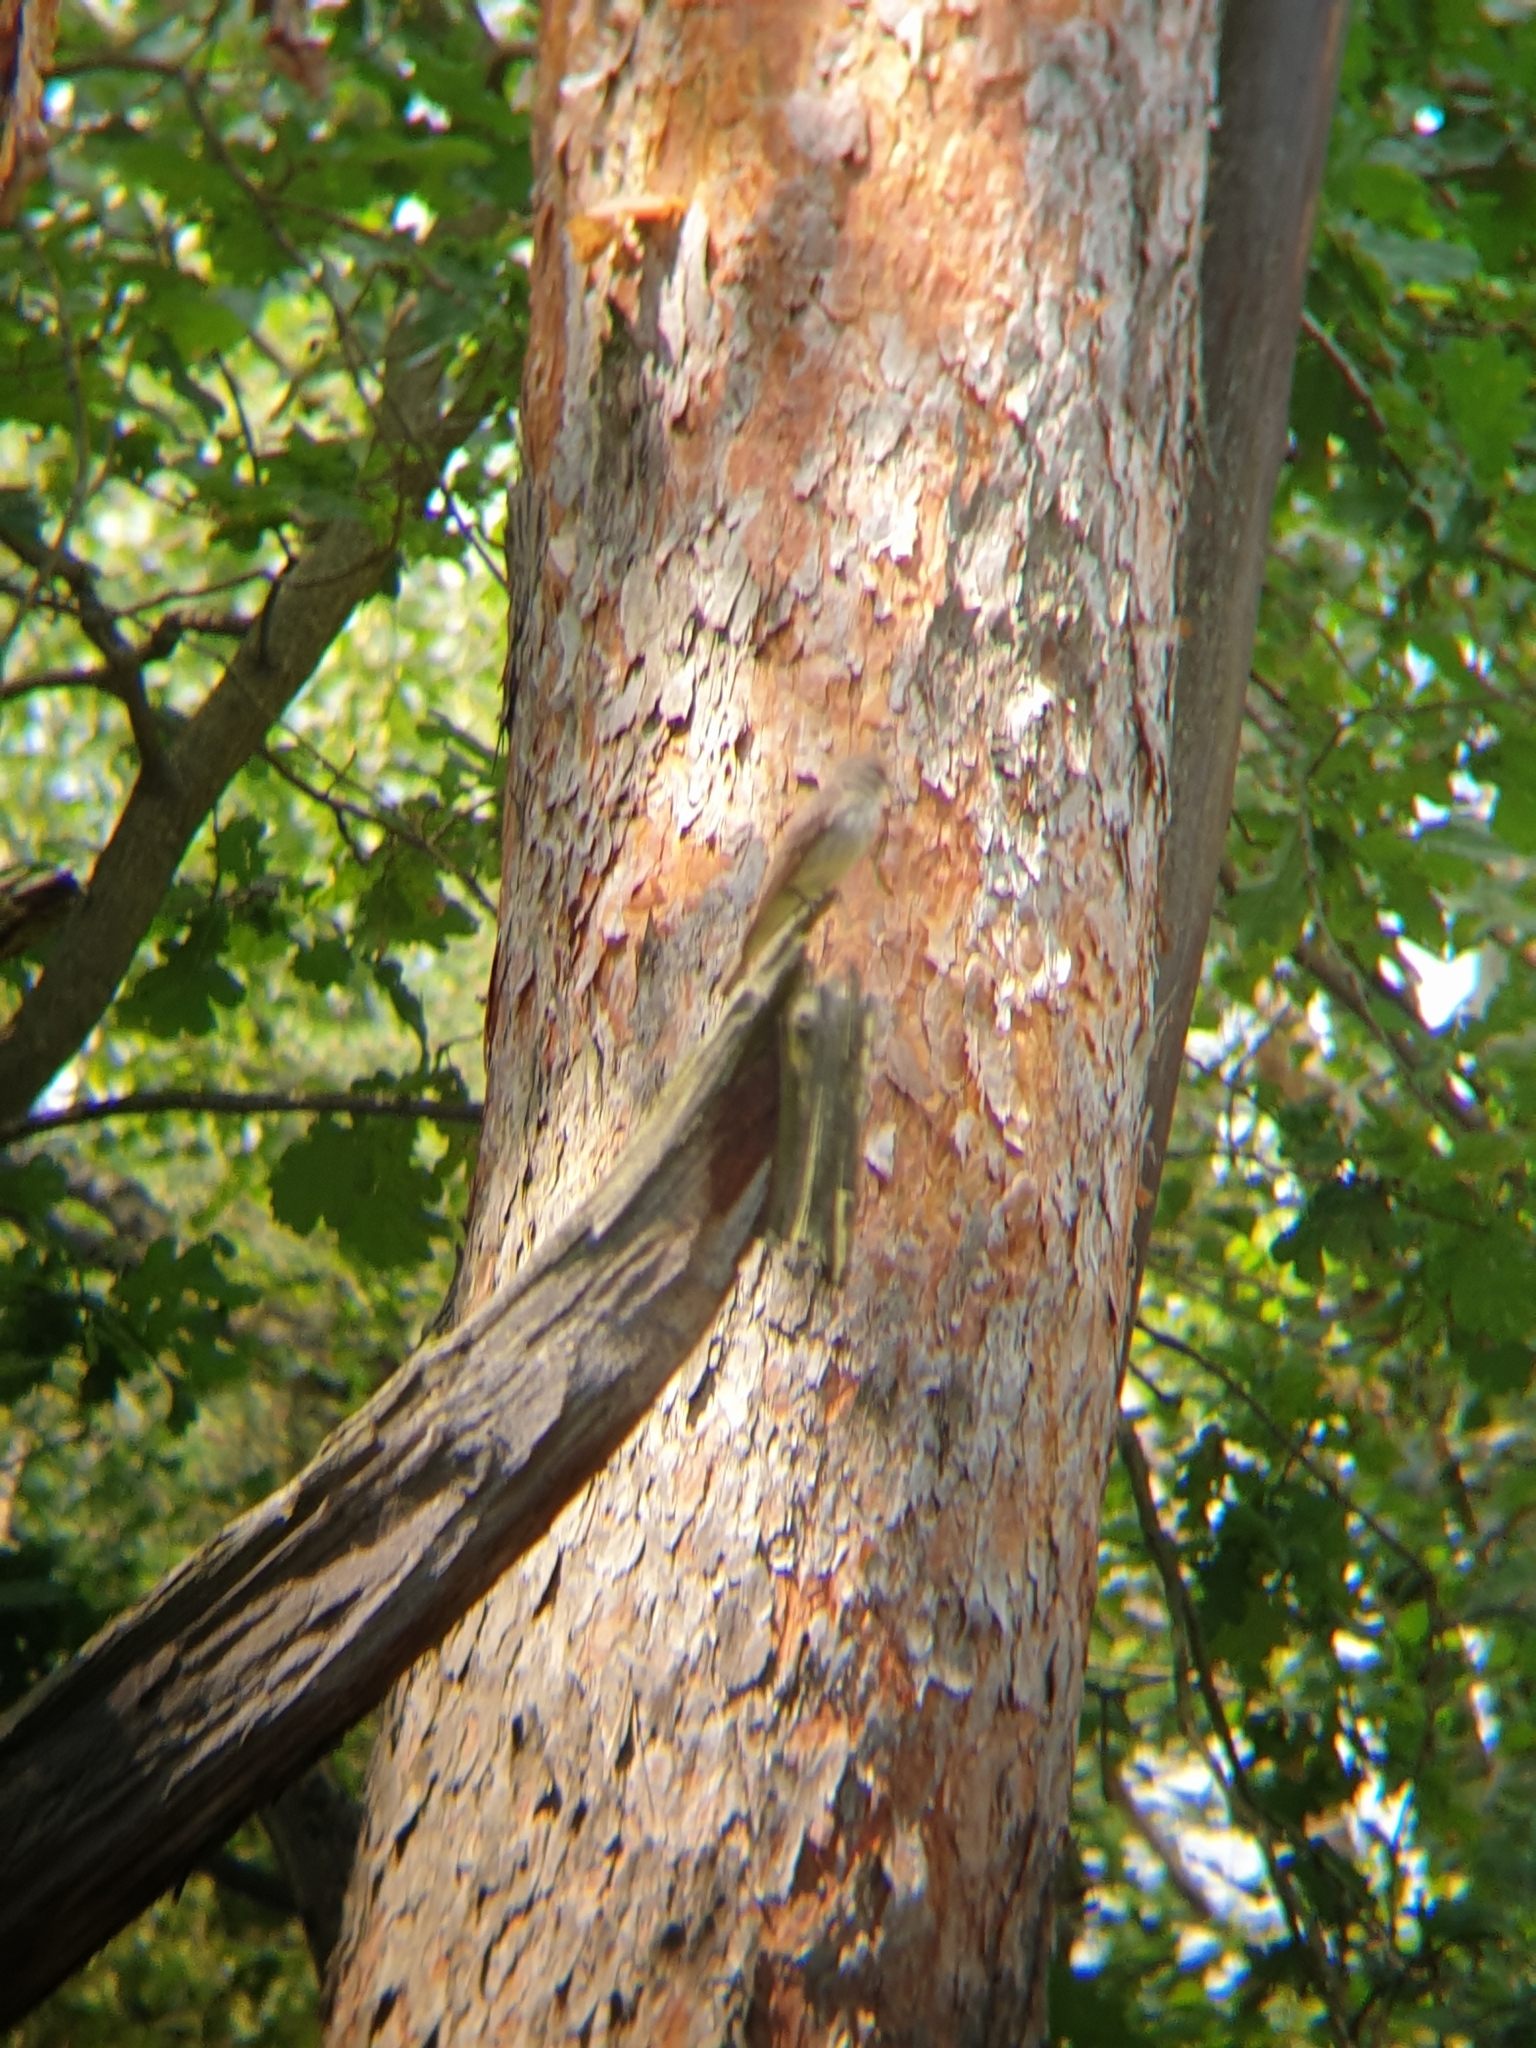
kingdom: Animalia
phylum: Chordata
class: Aves
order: Passeriformes
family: Muscicapidae
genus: Muscicapa
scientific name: Muscicapa striata
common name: Spotted flycatcher
